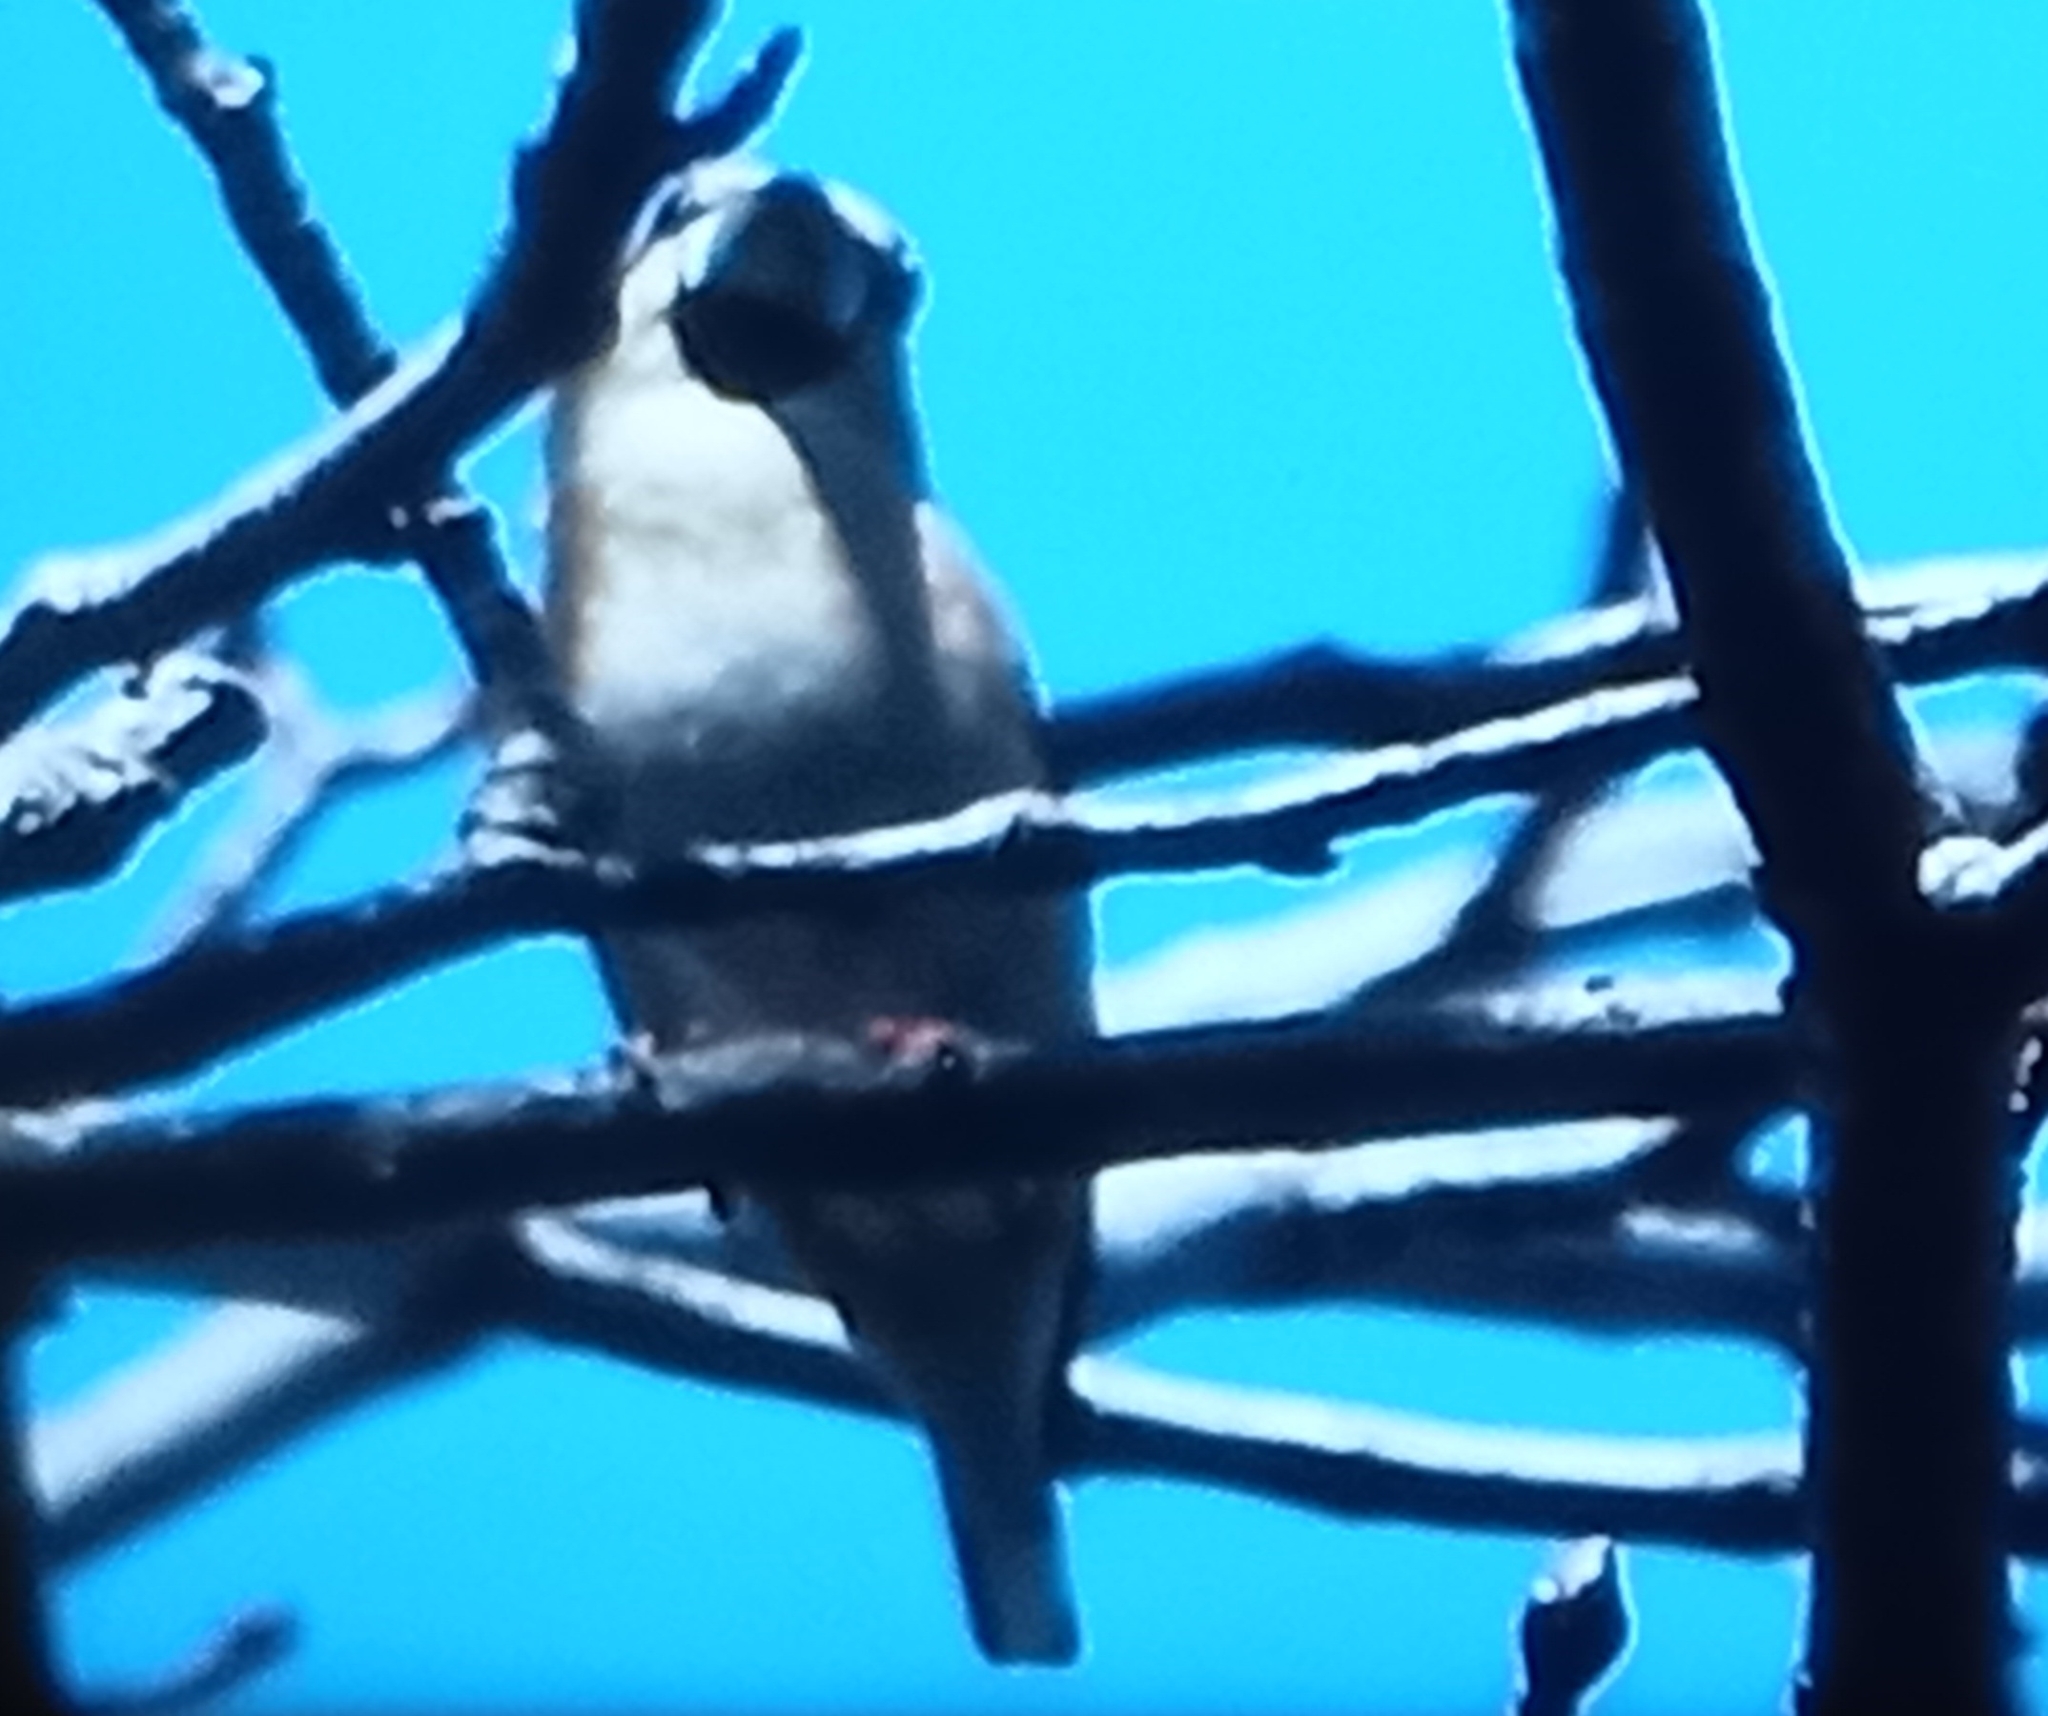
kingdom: Animalia
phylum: Chordata
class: Aves
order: Passeriformes
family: Fringillidae
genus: Coccothraustes
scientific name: Coccothraustes coccothraustes
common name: Hawfinch
